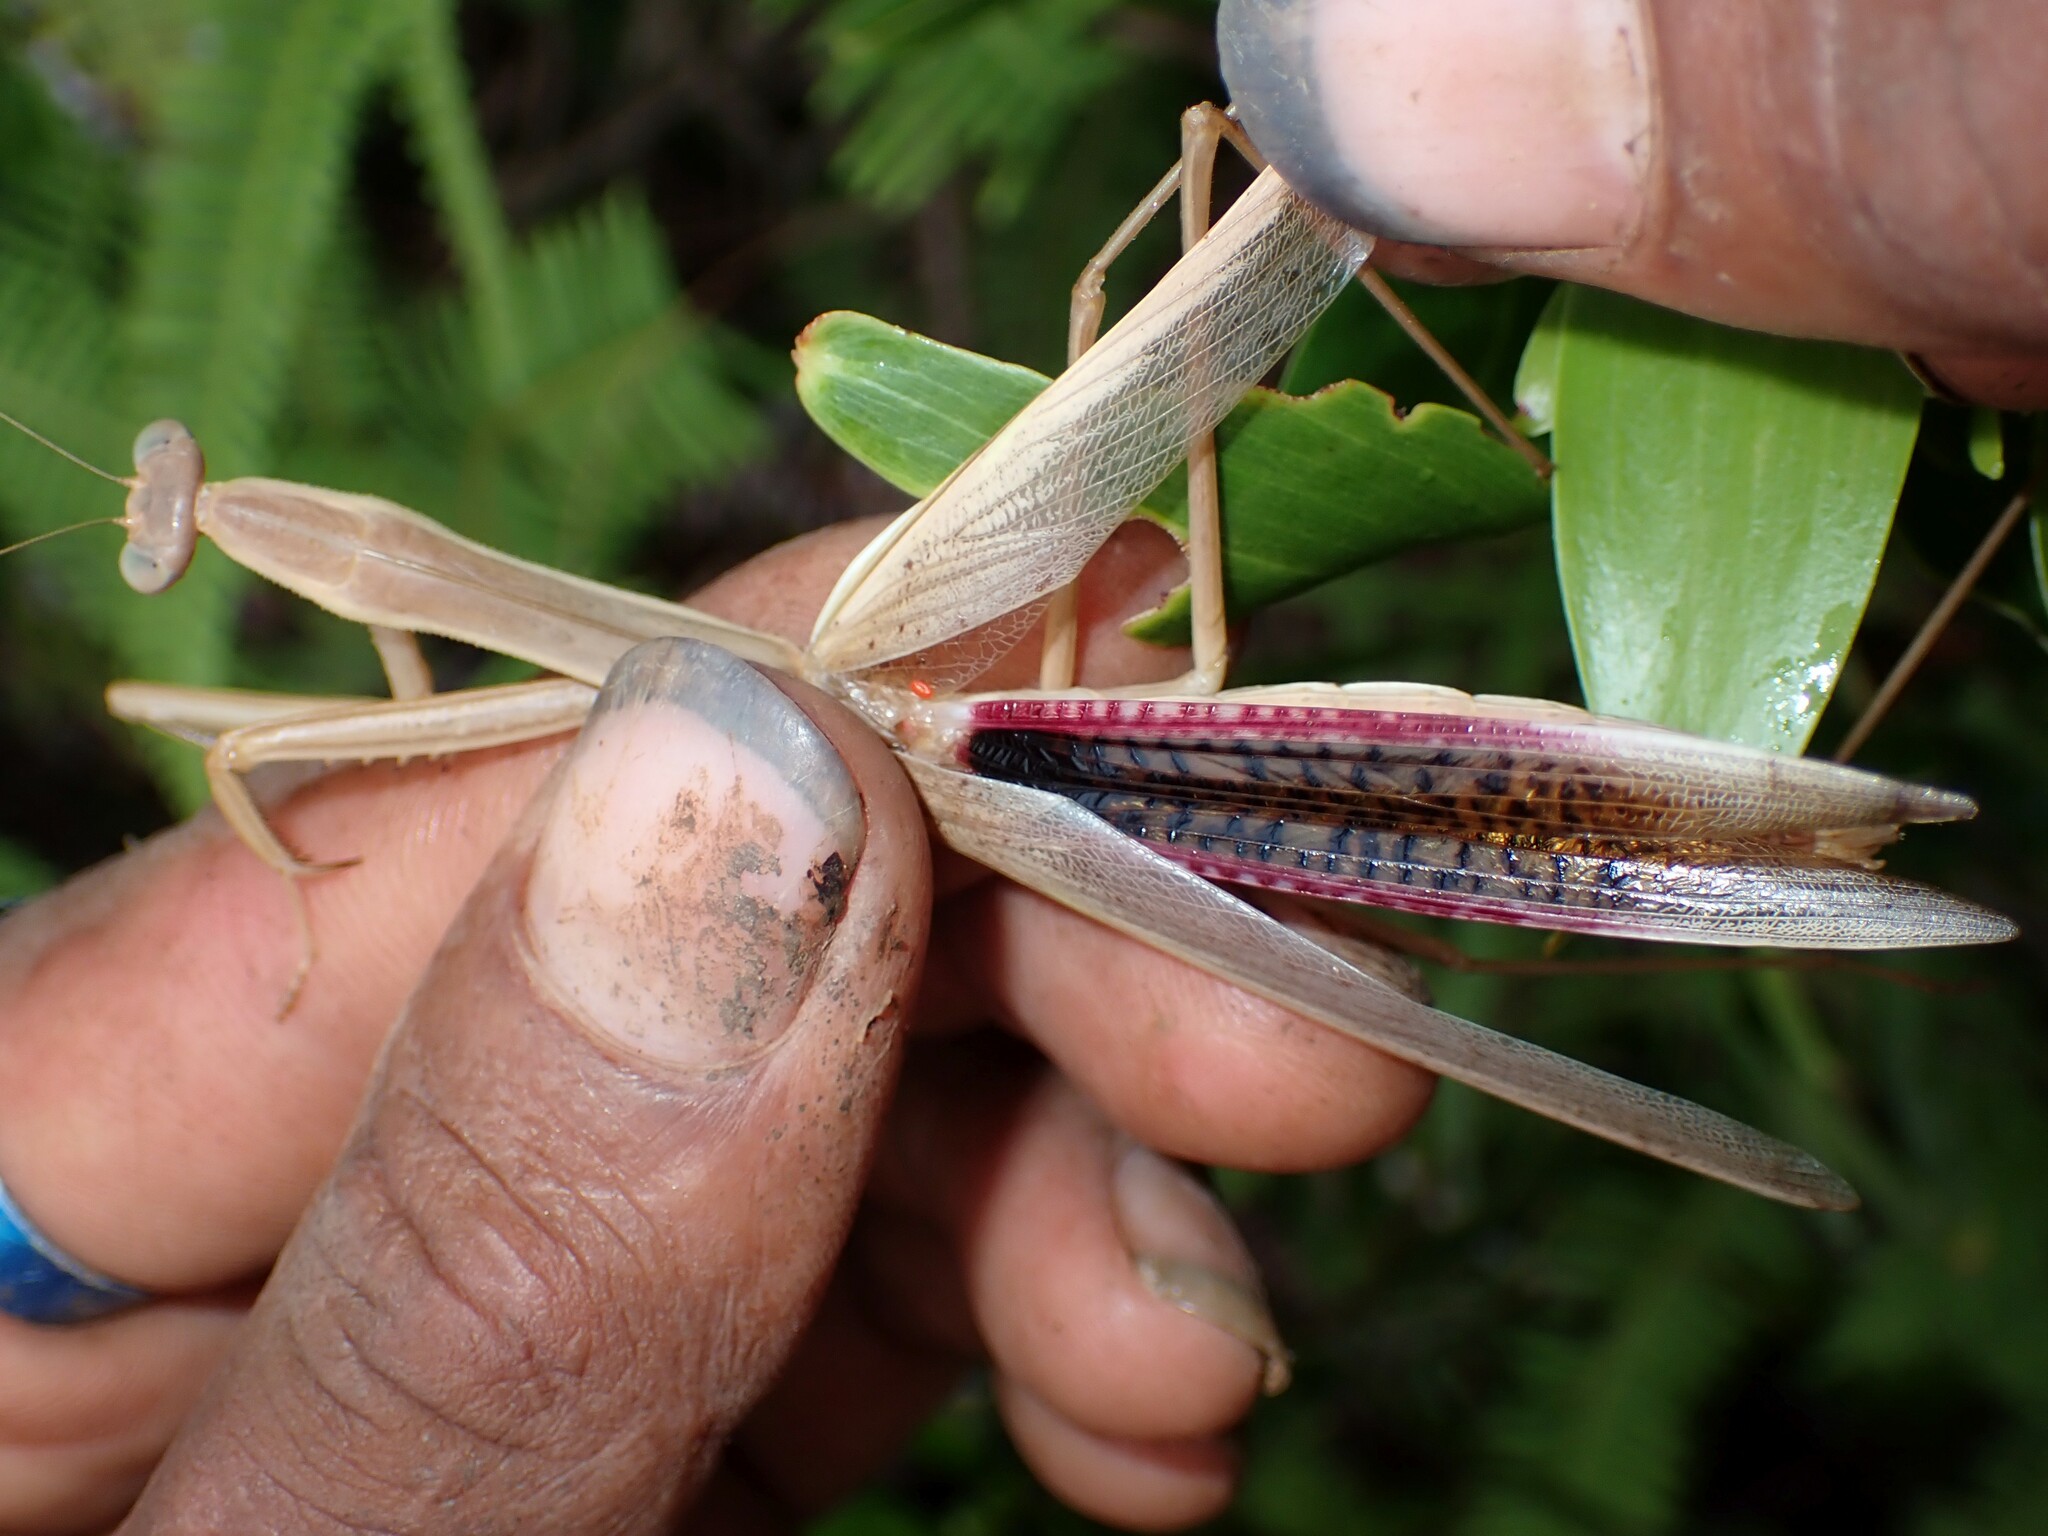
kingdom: Animalia
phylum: Arthropoda
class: Insecta
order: Mantodea
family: Mantidae
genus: Tenodera
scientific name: Tenodera australasiae
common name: Purple-winged mantis
